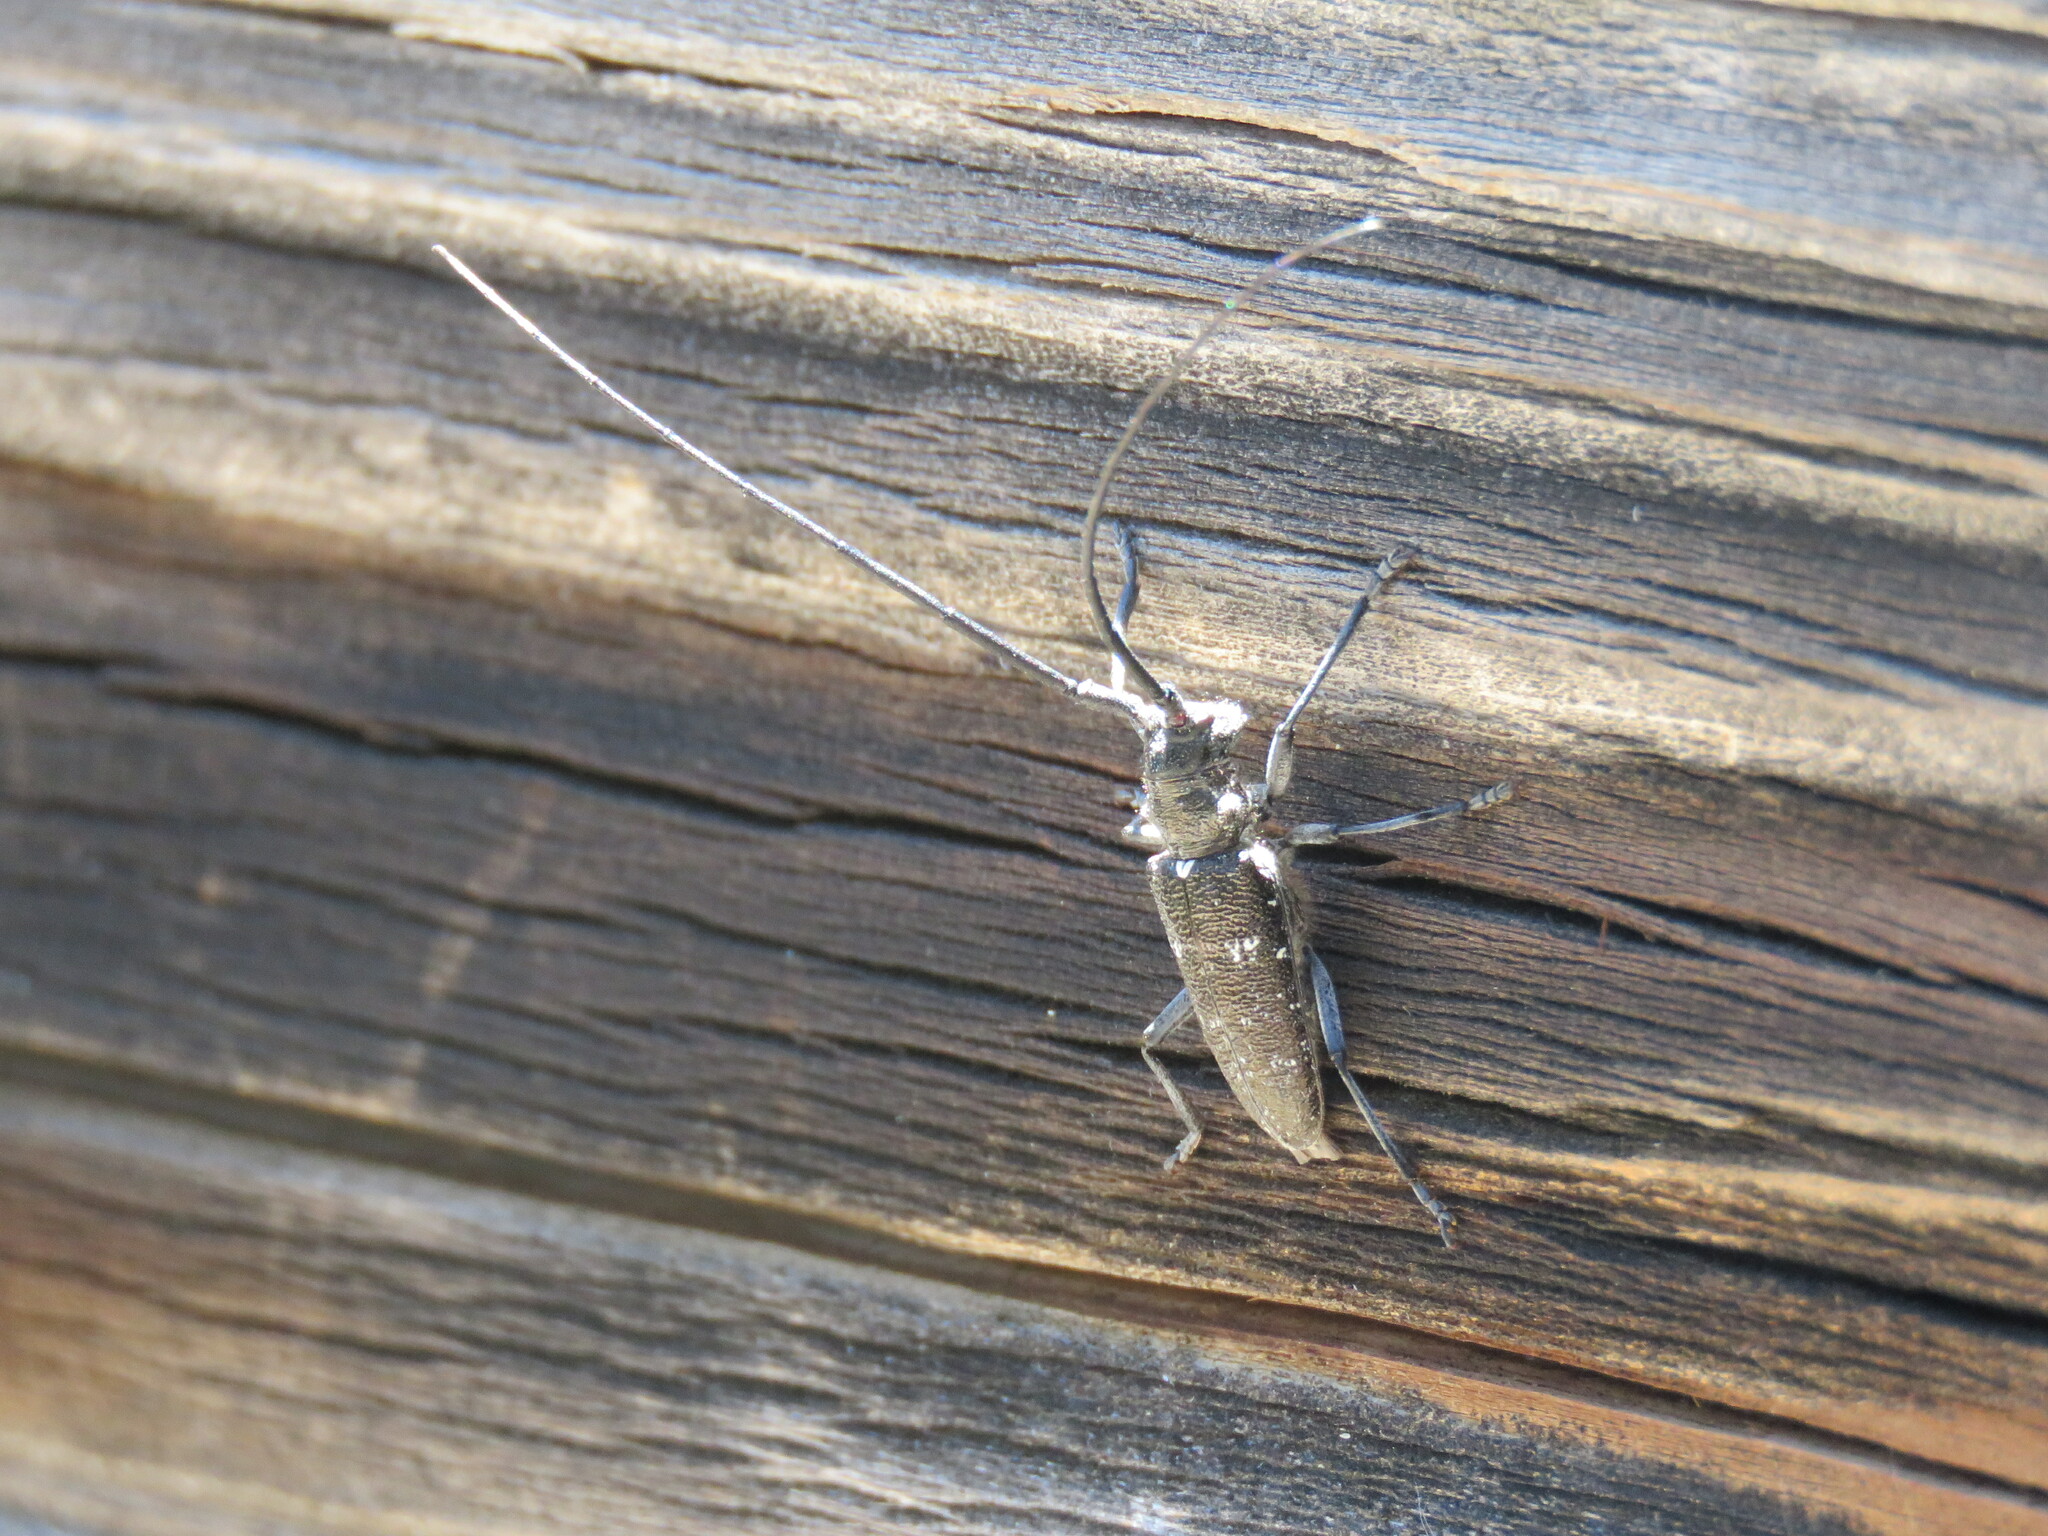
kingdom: Animalia
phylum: Arthropoda
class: Insecta
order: Coleoptera
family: Cerambycidae
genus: Monochamus
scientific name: Monochamus scutellatus
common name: White-spotted sawyer beetle
